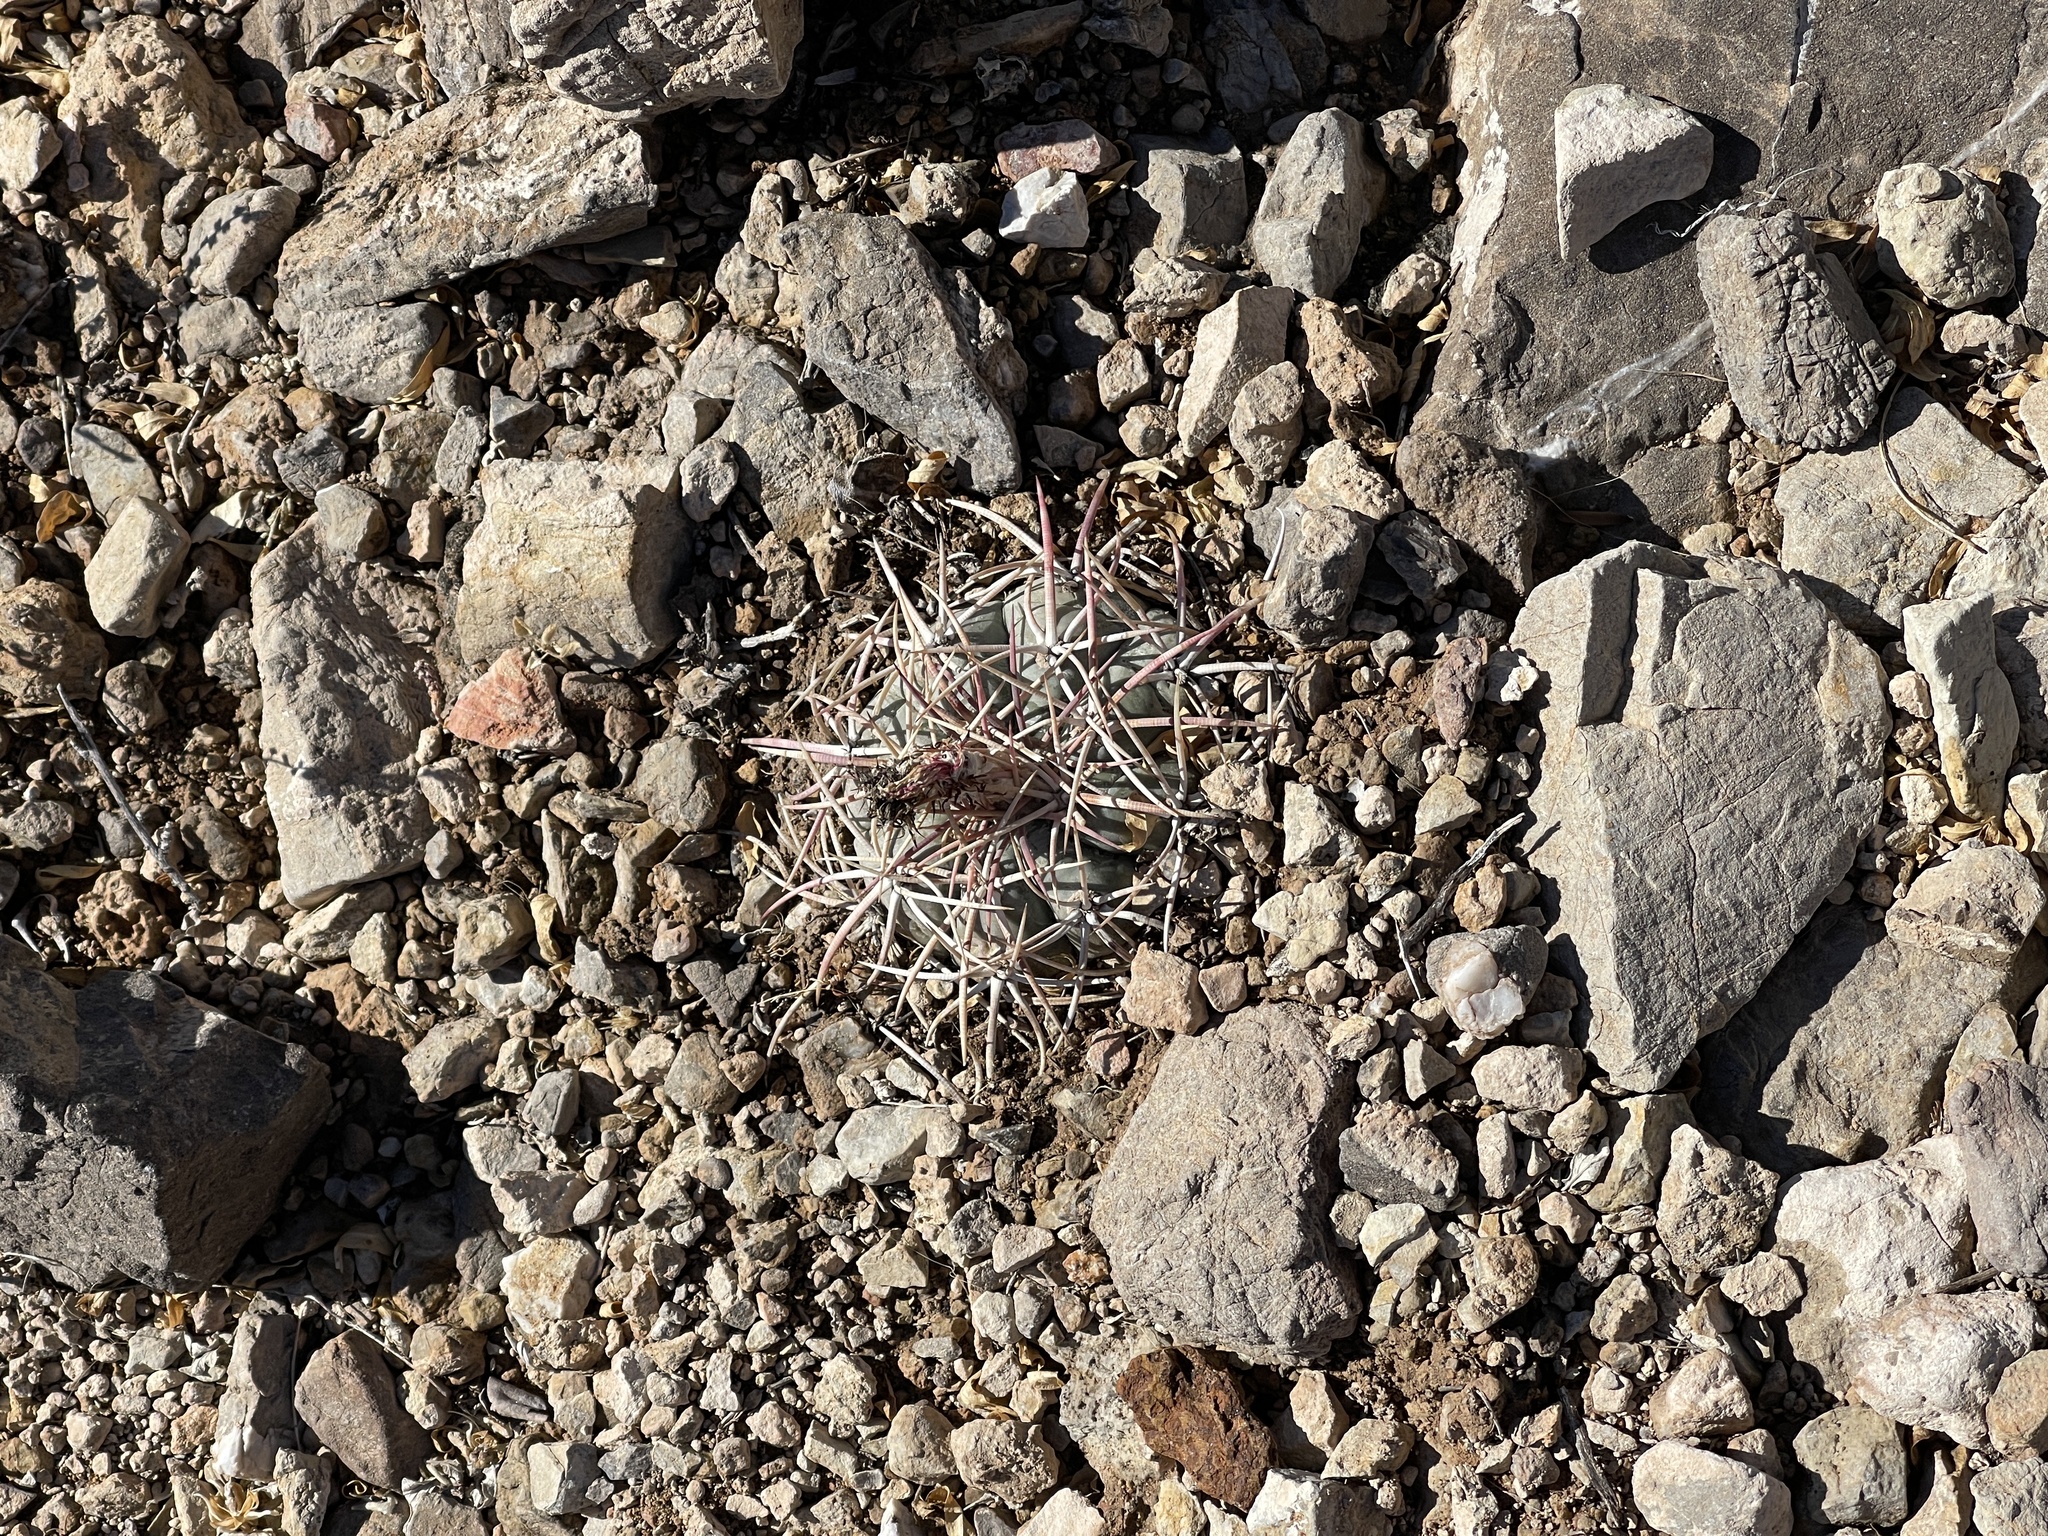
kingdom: Plantae
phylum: Tracheophyta
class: Magnoliopsida
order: Caryophyllales
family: Cactaceae
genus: Echinocactus
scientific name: Echinocactus horizonthalonius
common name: Devilshead
